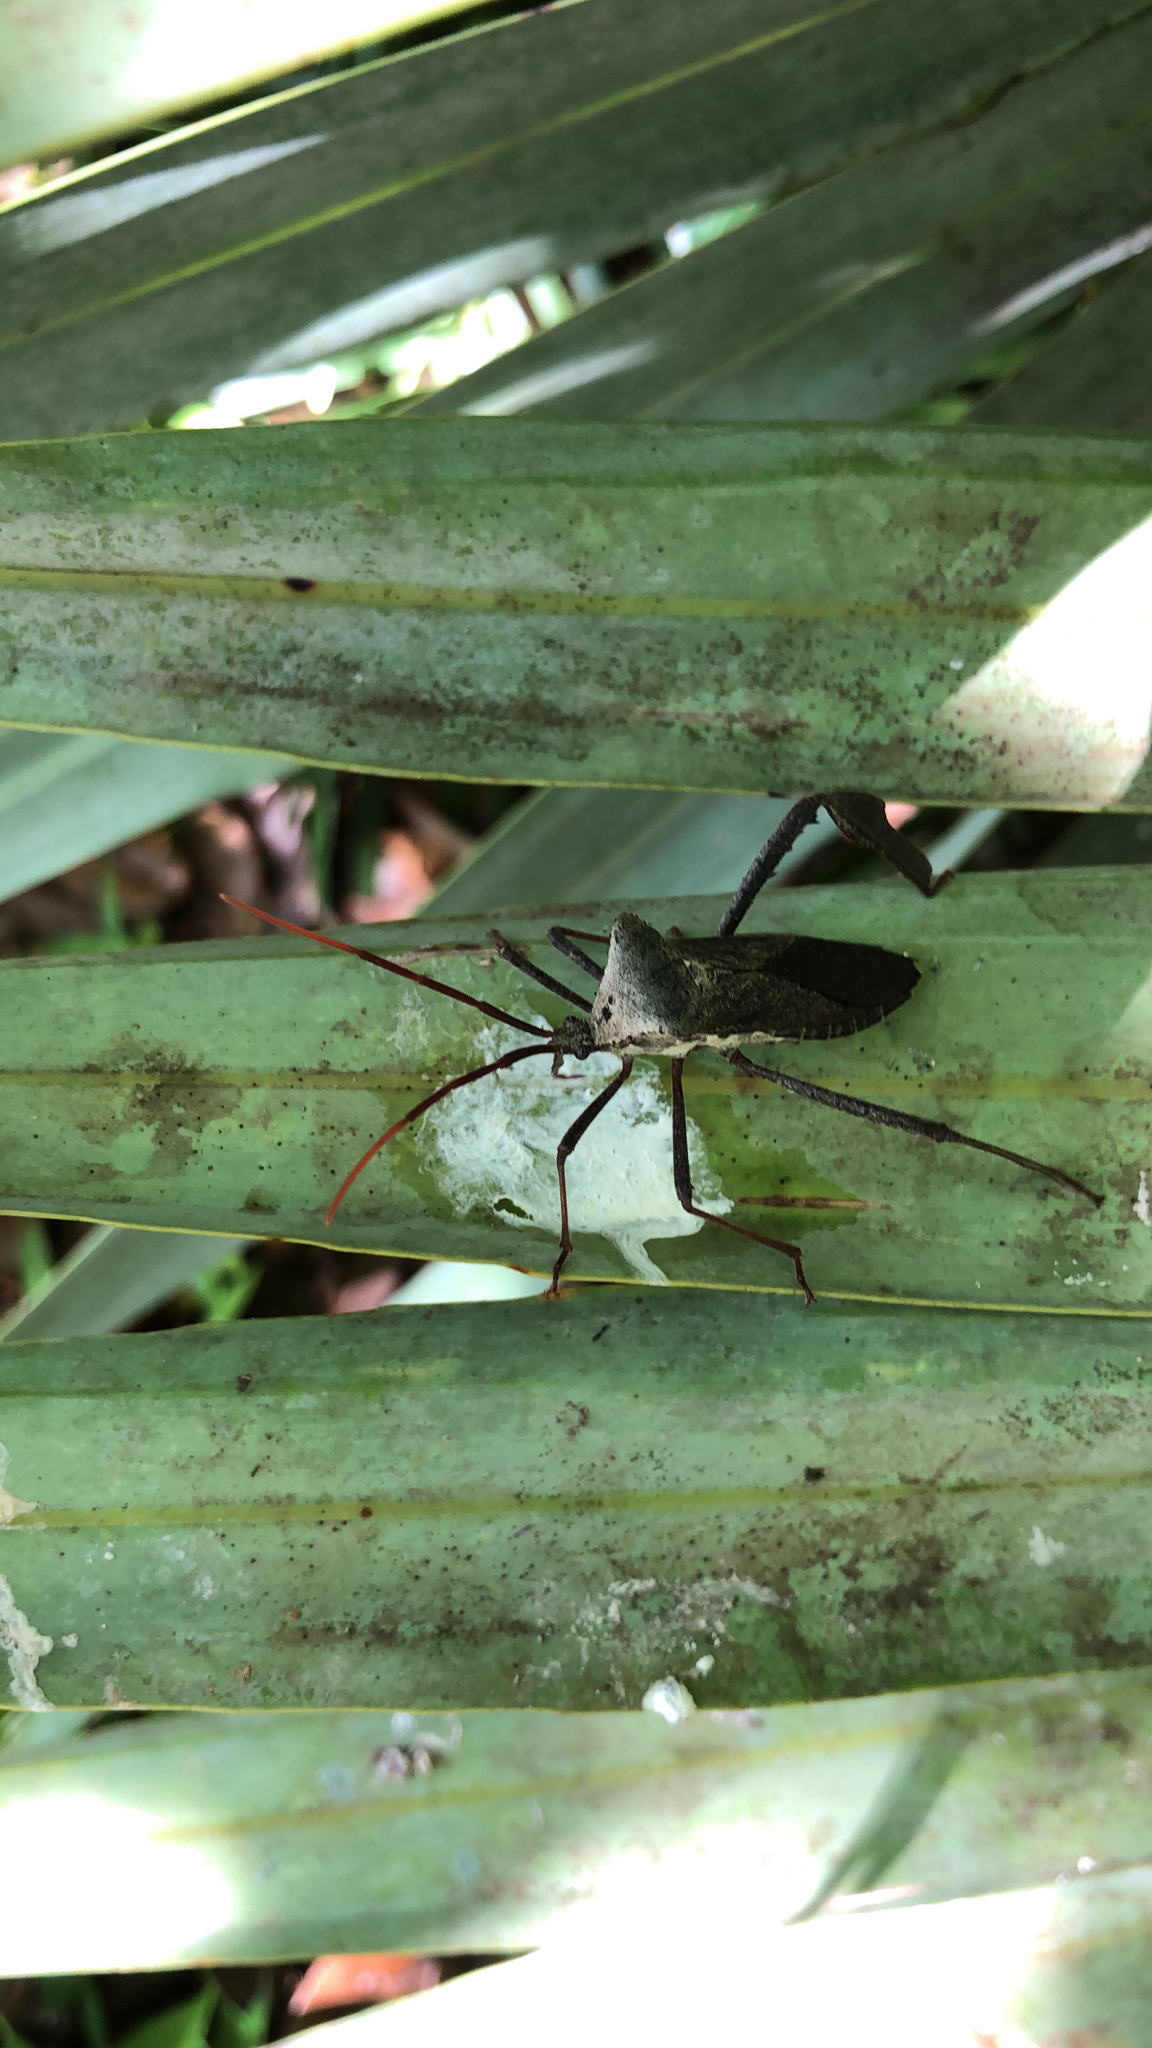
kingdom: Animalia
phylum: Arthropoda
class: Insecta
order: Hemiptera
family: Coreidae
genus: Acanthocephala
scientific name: Acanthocephala declivis
